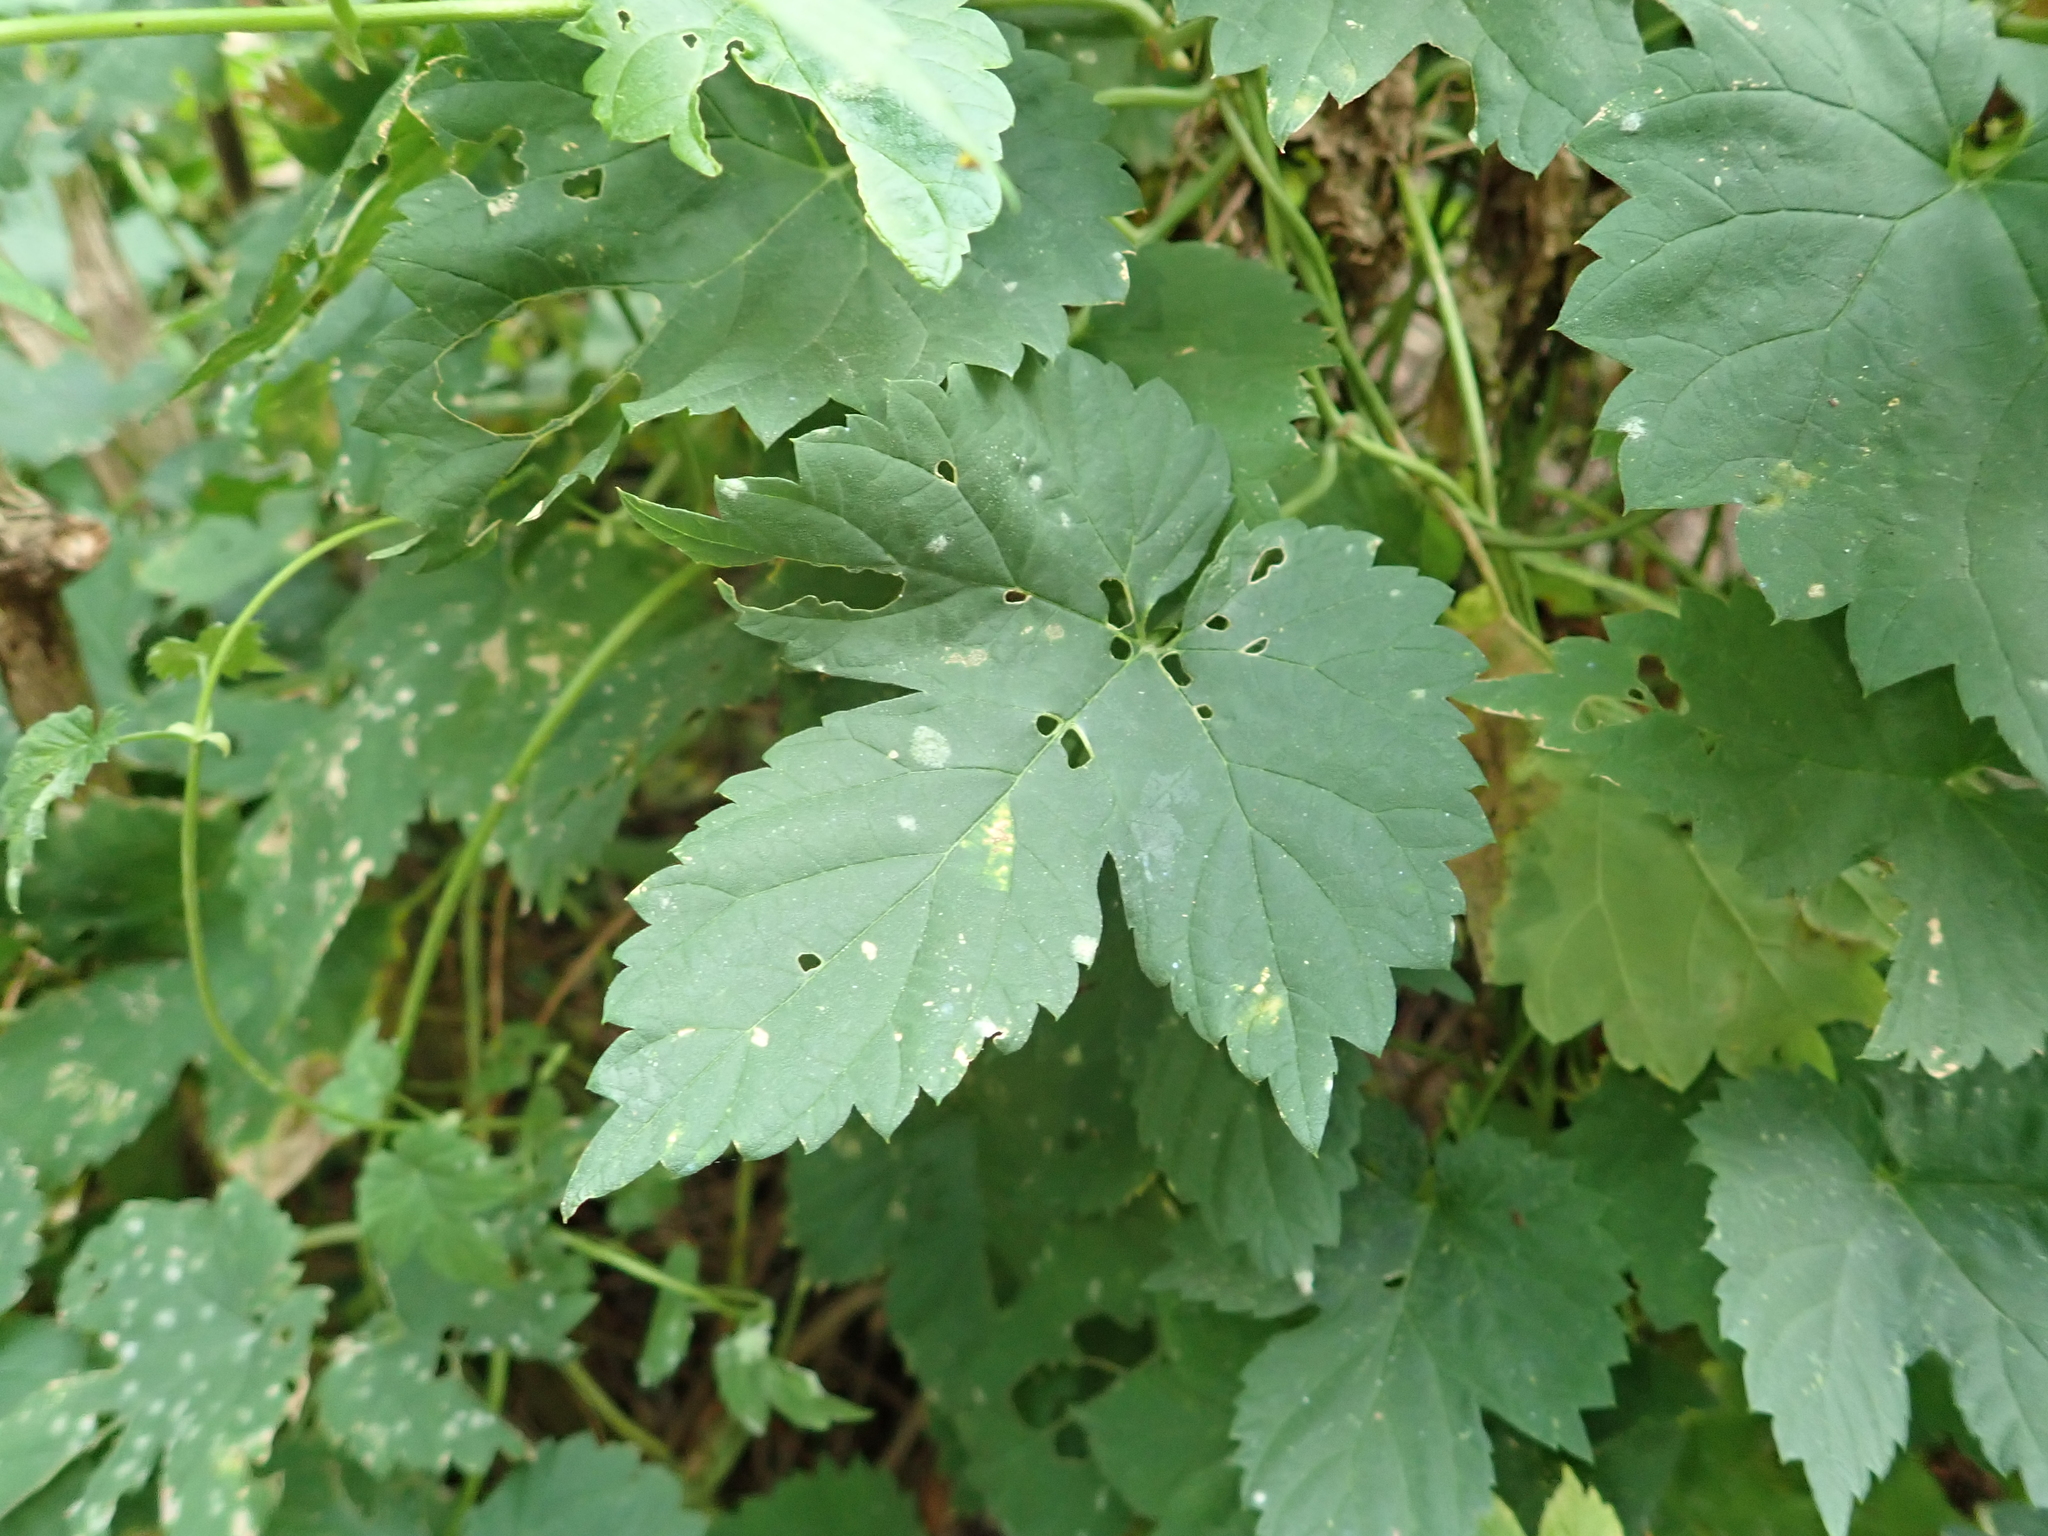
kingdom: Plantae
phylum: Tracheophyta
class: Magnoliopsida
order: Rosales
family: Cannabaceae
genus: Humulus
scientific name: Humulus lupulus
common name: Hop
